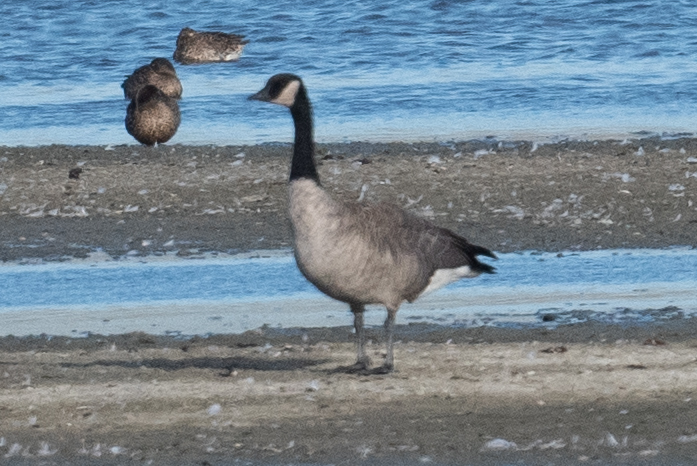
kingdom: Animalia
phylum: Chordata
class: Aves
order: Anseriformes
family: Anatidae
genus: Branta
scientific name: Branta canadensis
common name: Canada goose
